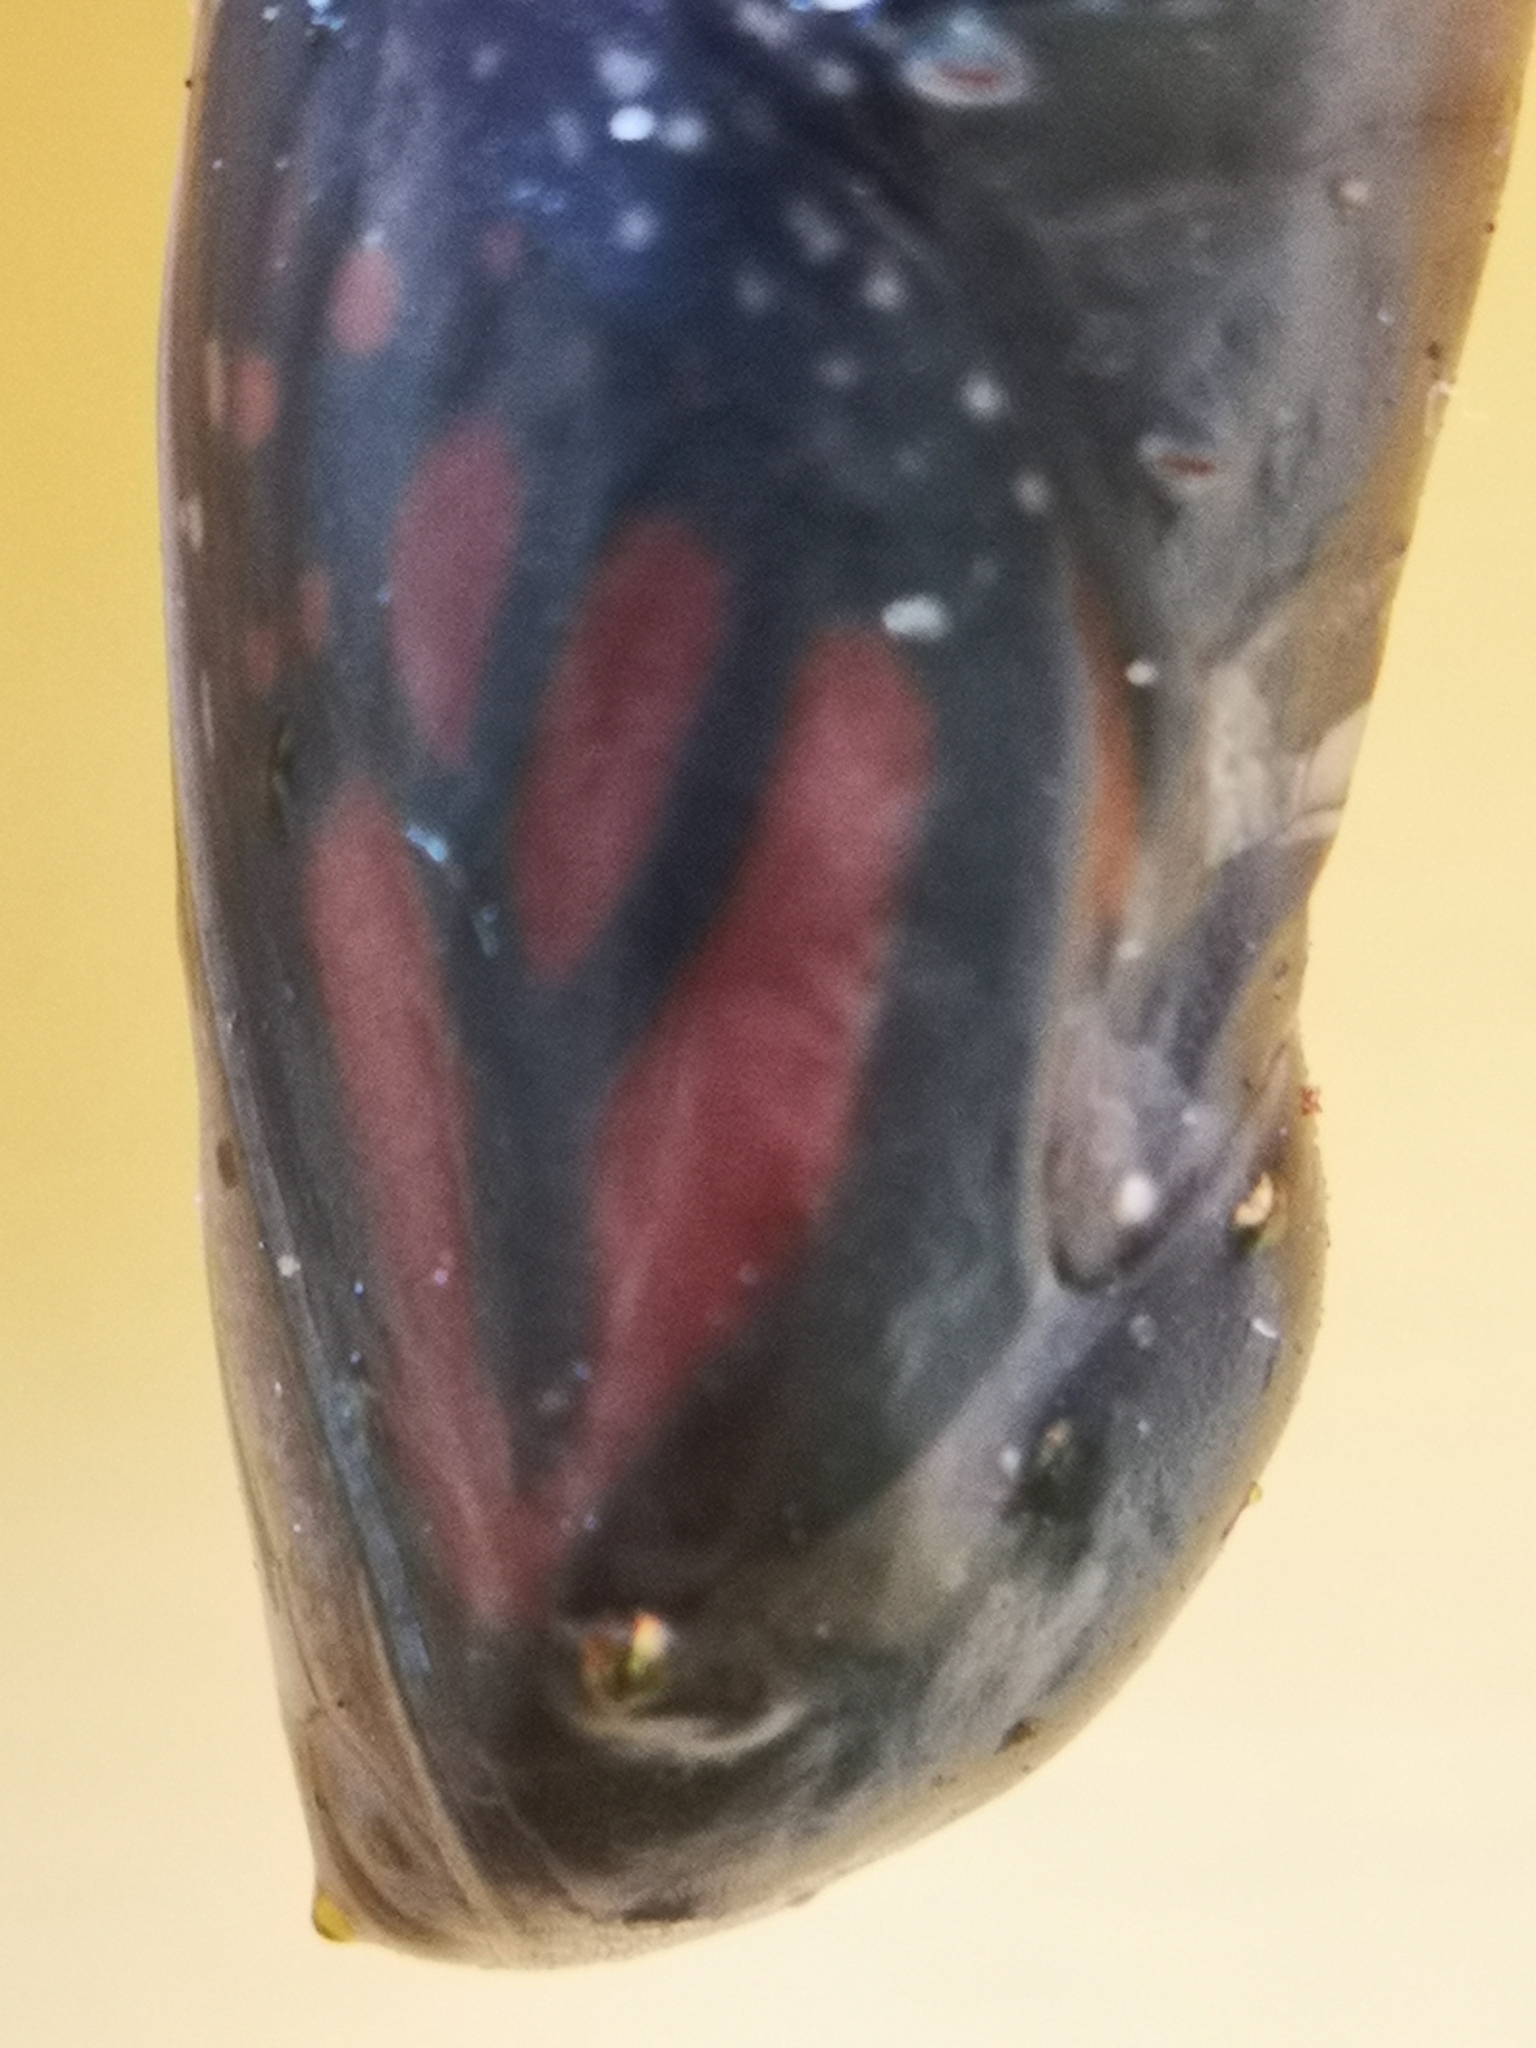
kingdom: Animalia
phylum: Arthropoda
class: Insecta
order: Lepidoptera
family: Nymphalidae
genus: Danaus
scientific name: Danaus plexippus
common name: Monarch
